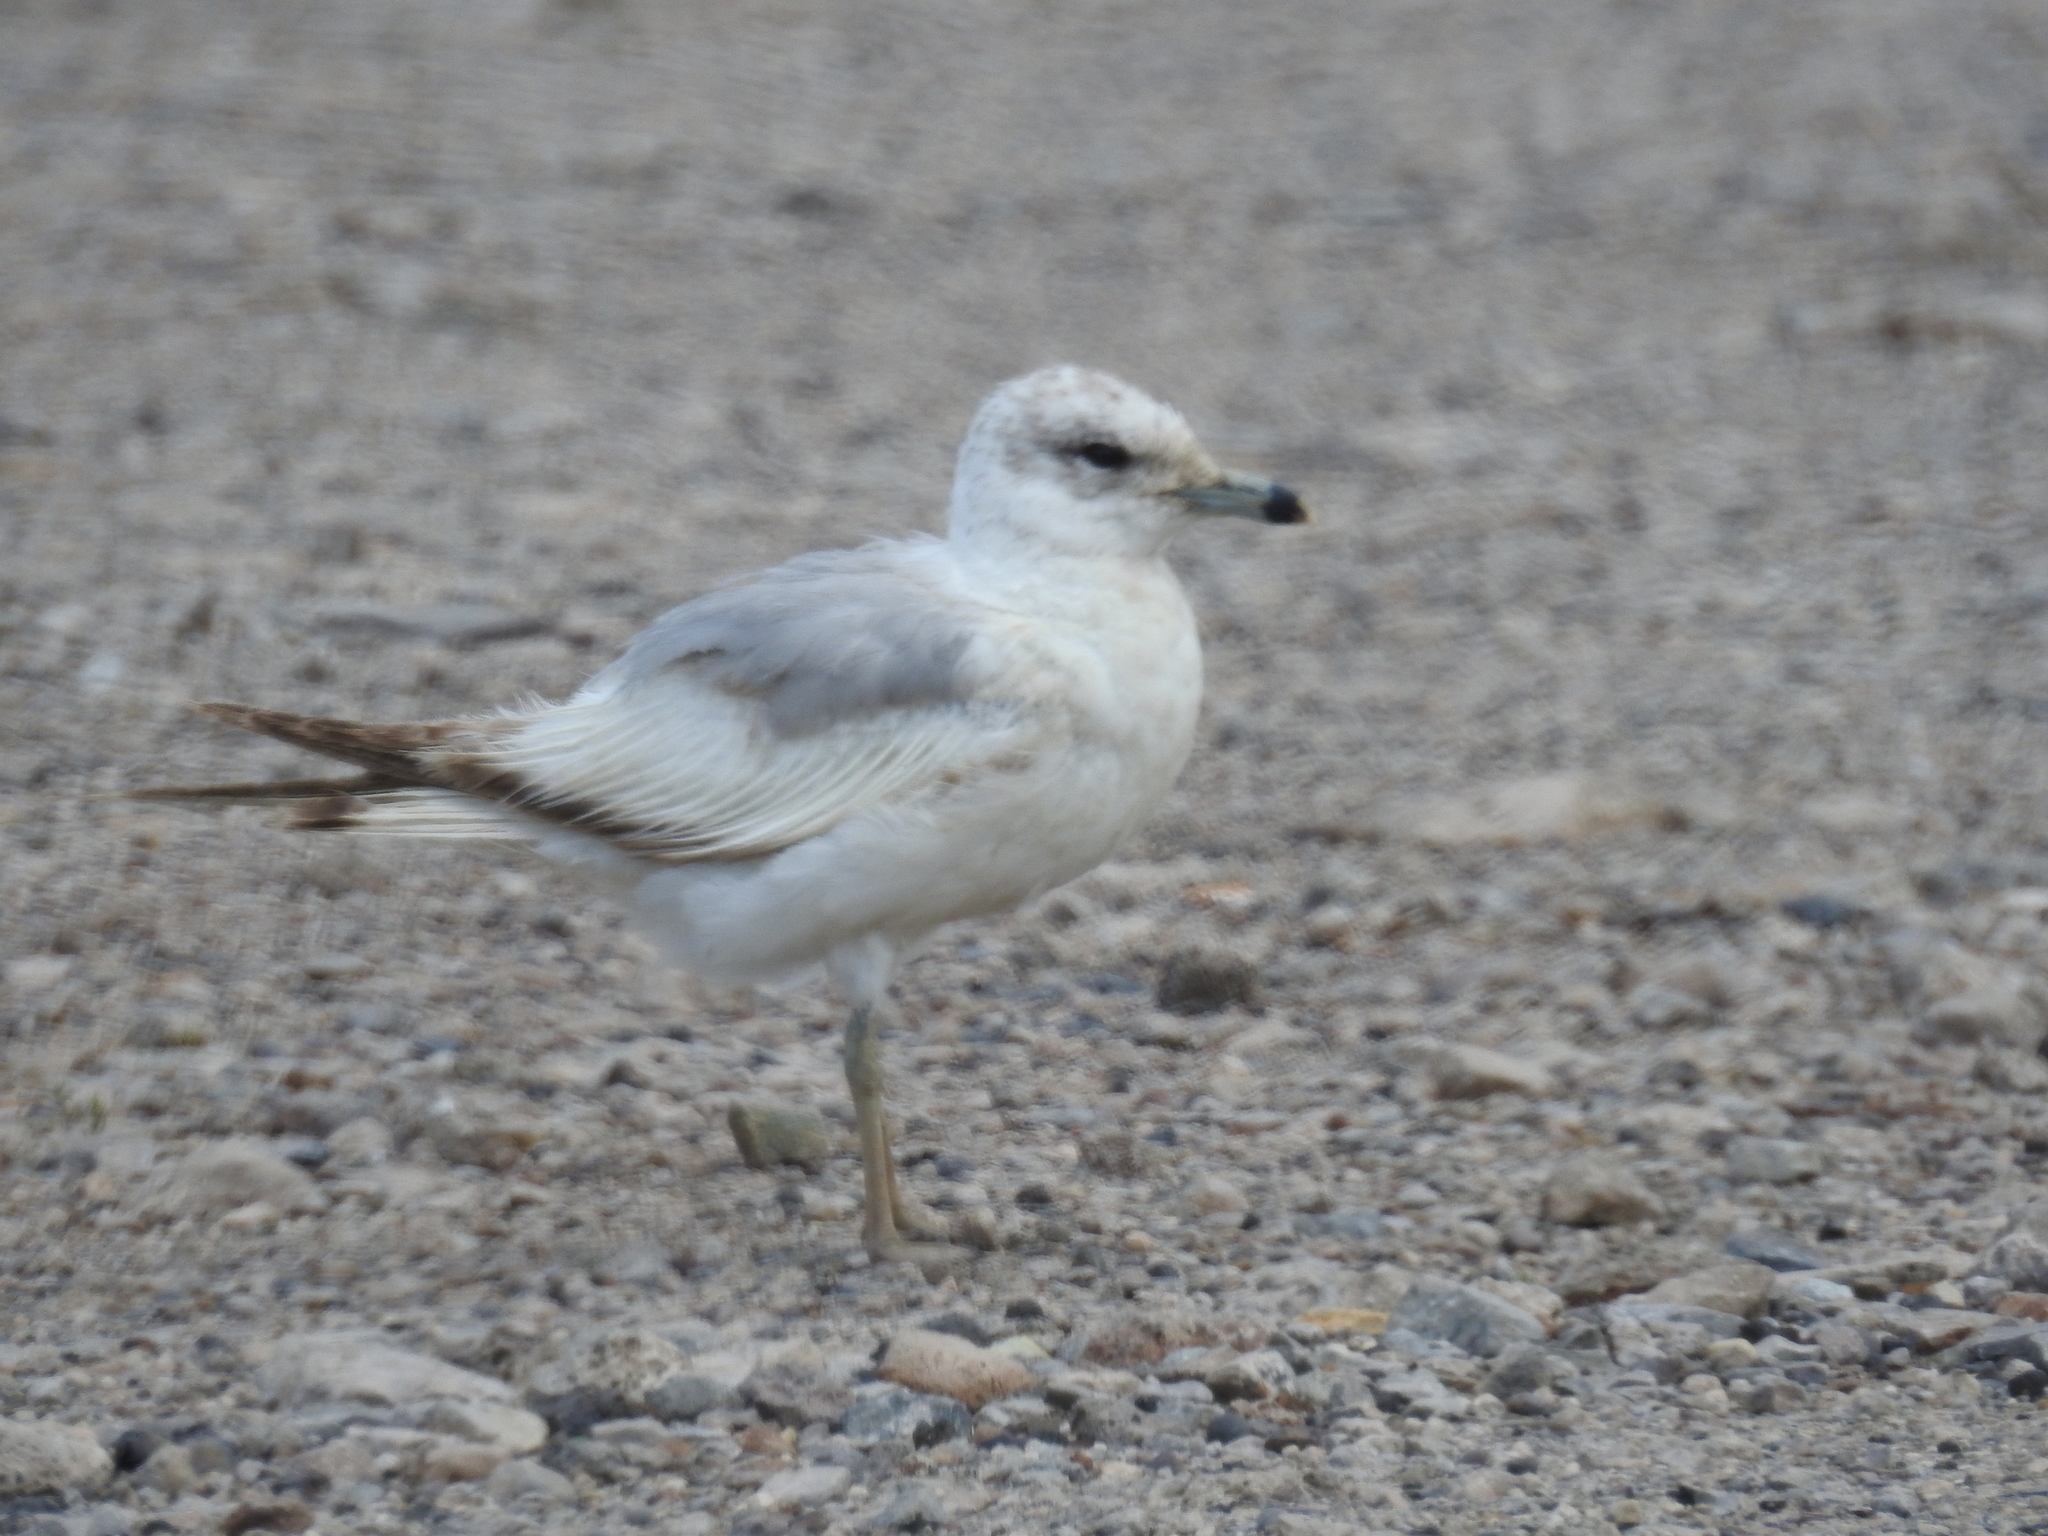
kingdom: Animalia
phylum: Chordata
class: Aves
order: Charadriiformes
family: Laridae
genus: Larus
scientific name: Larus delawarensis
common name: Ring-billed gull
